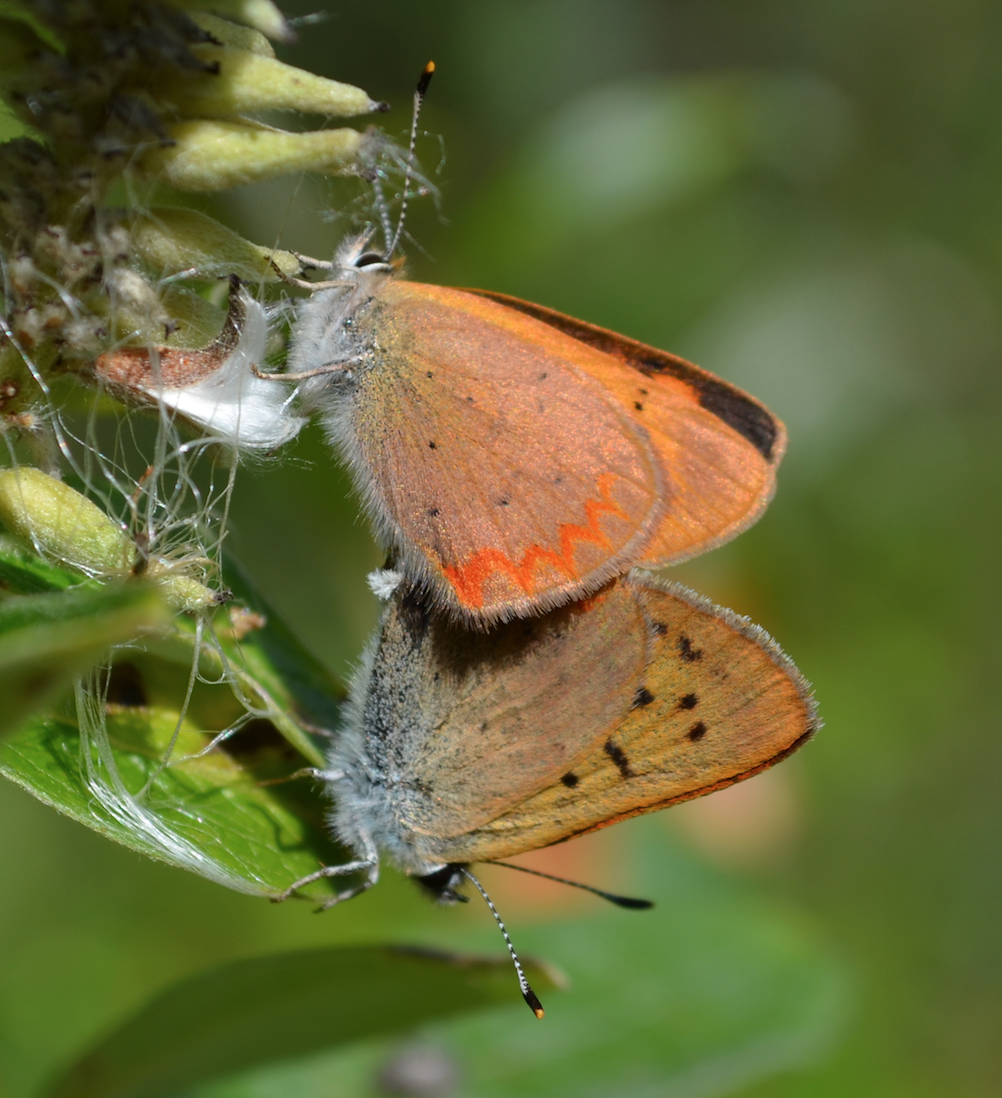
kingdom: Animalia
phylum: Arthropoda
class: Insecta
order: Lepidoptera
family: Lycaenidae
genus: Tharsalea
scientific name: Tharsalea dorcas
